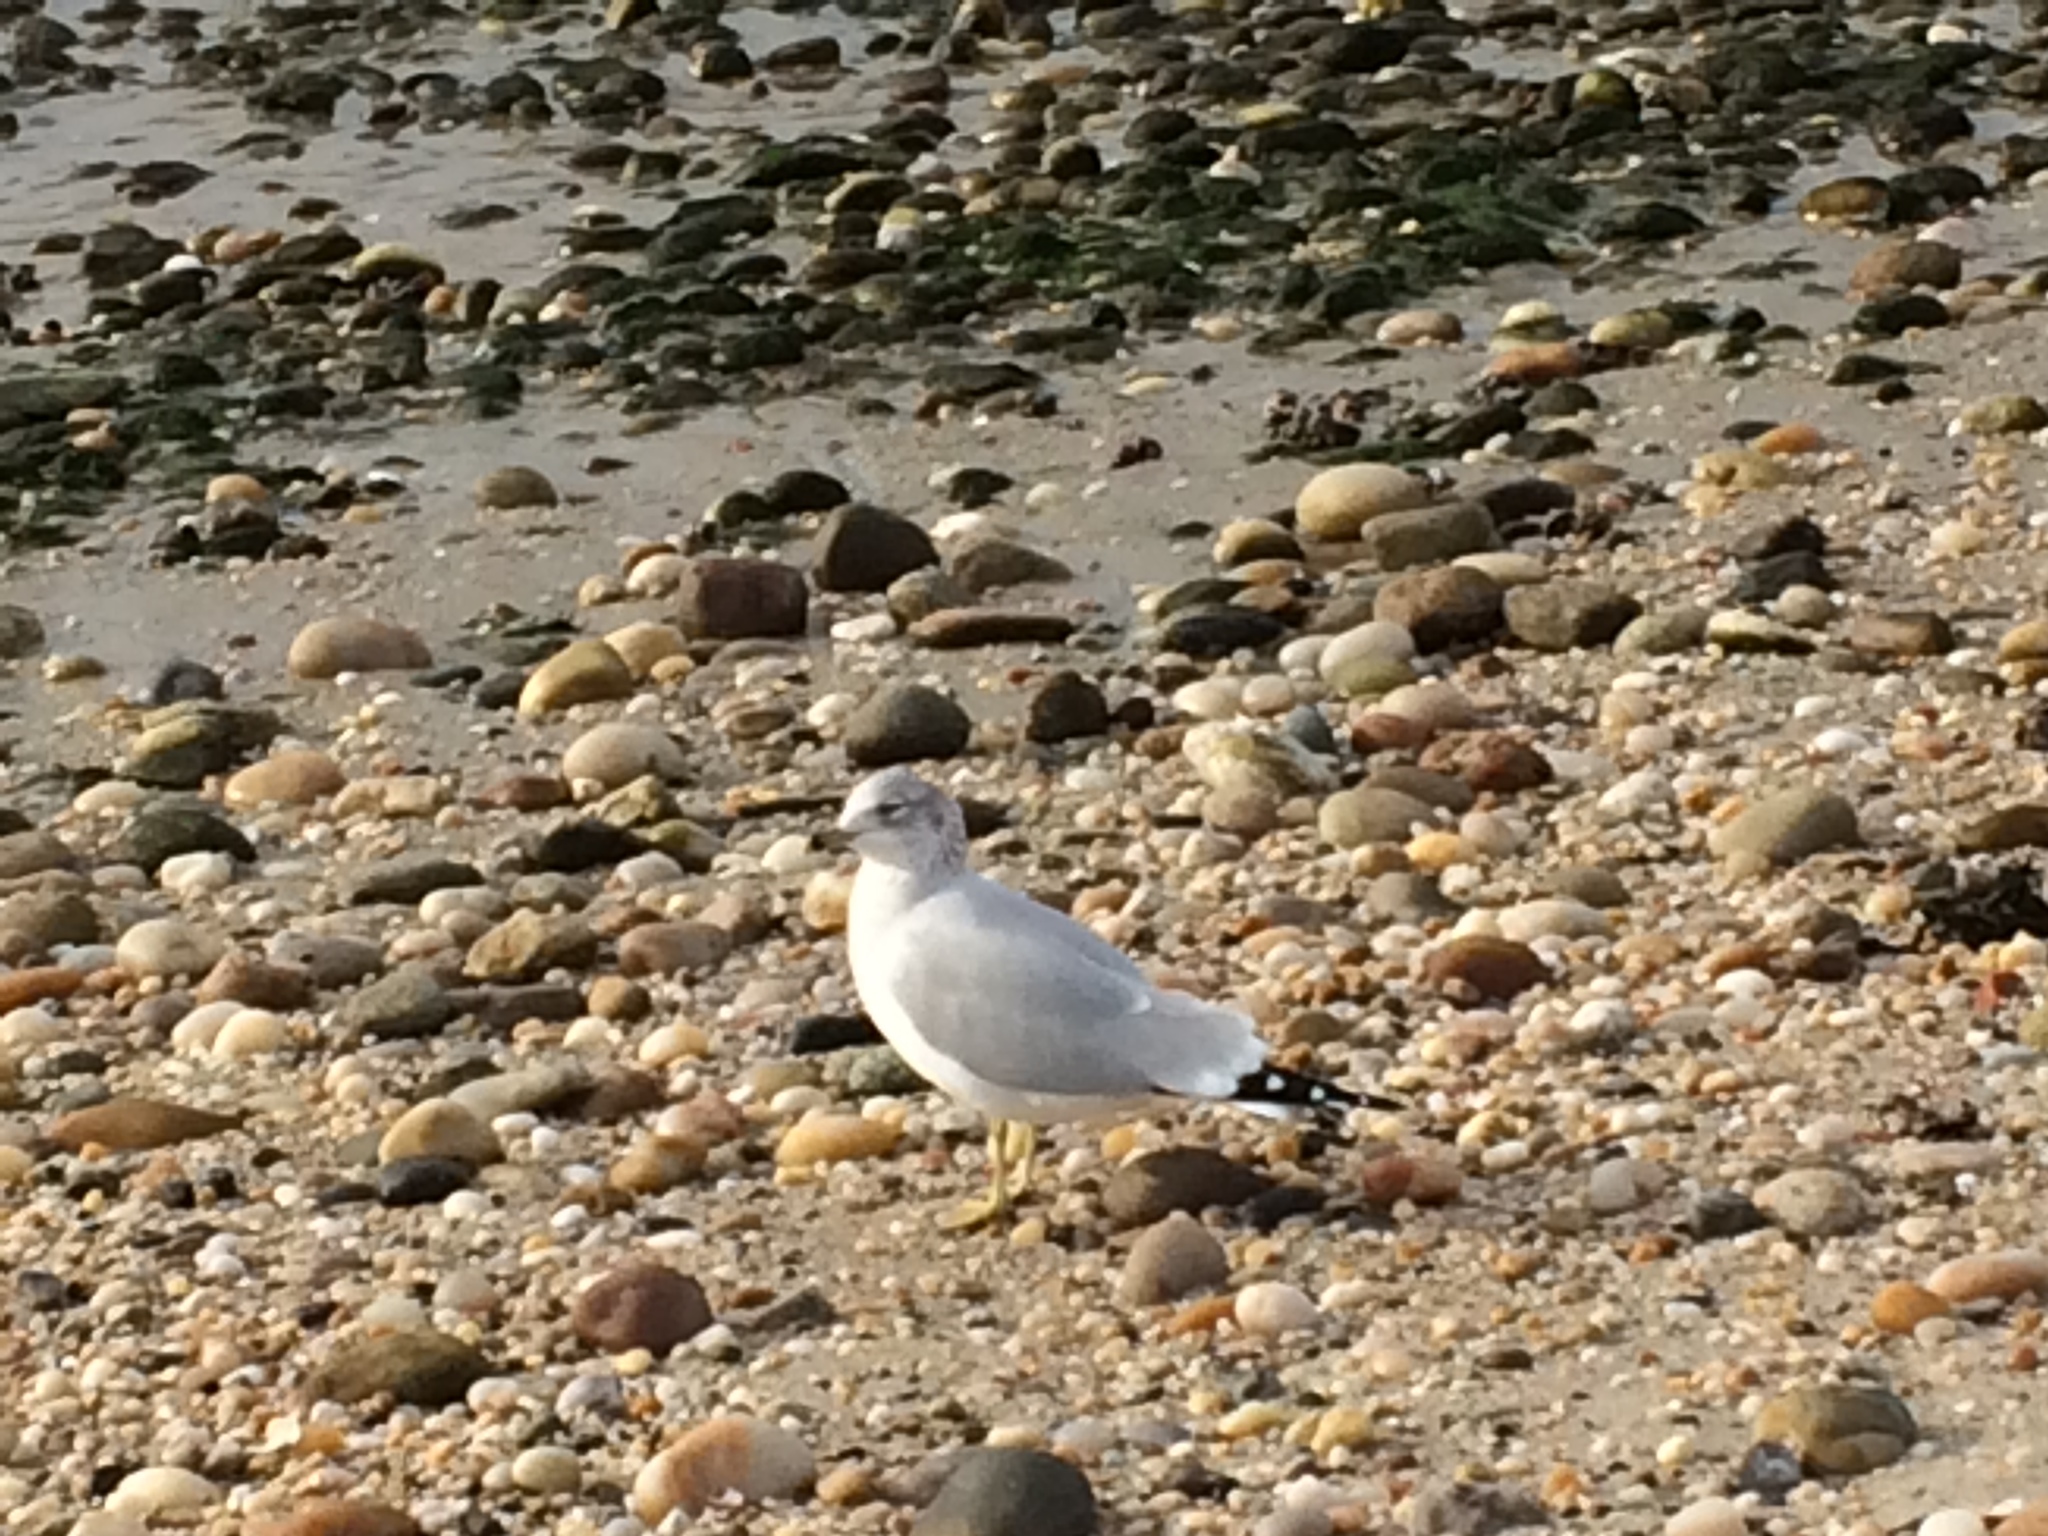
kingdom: Animalia
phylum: Chordata
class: Aves
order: Charadriiformes
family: Laridae
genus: Larus
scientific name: Larus delawarensis
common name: Ring-billed gull
